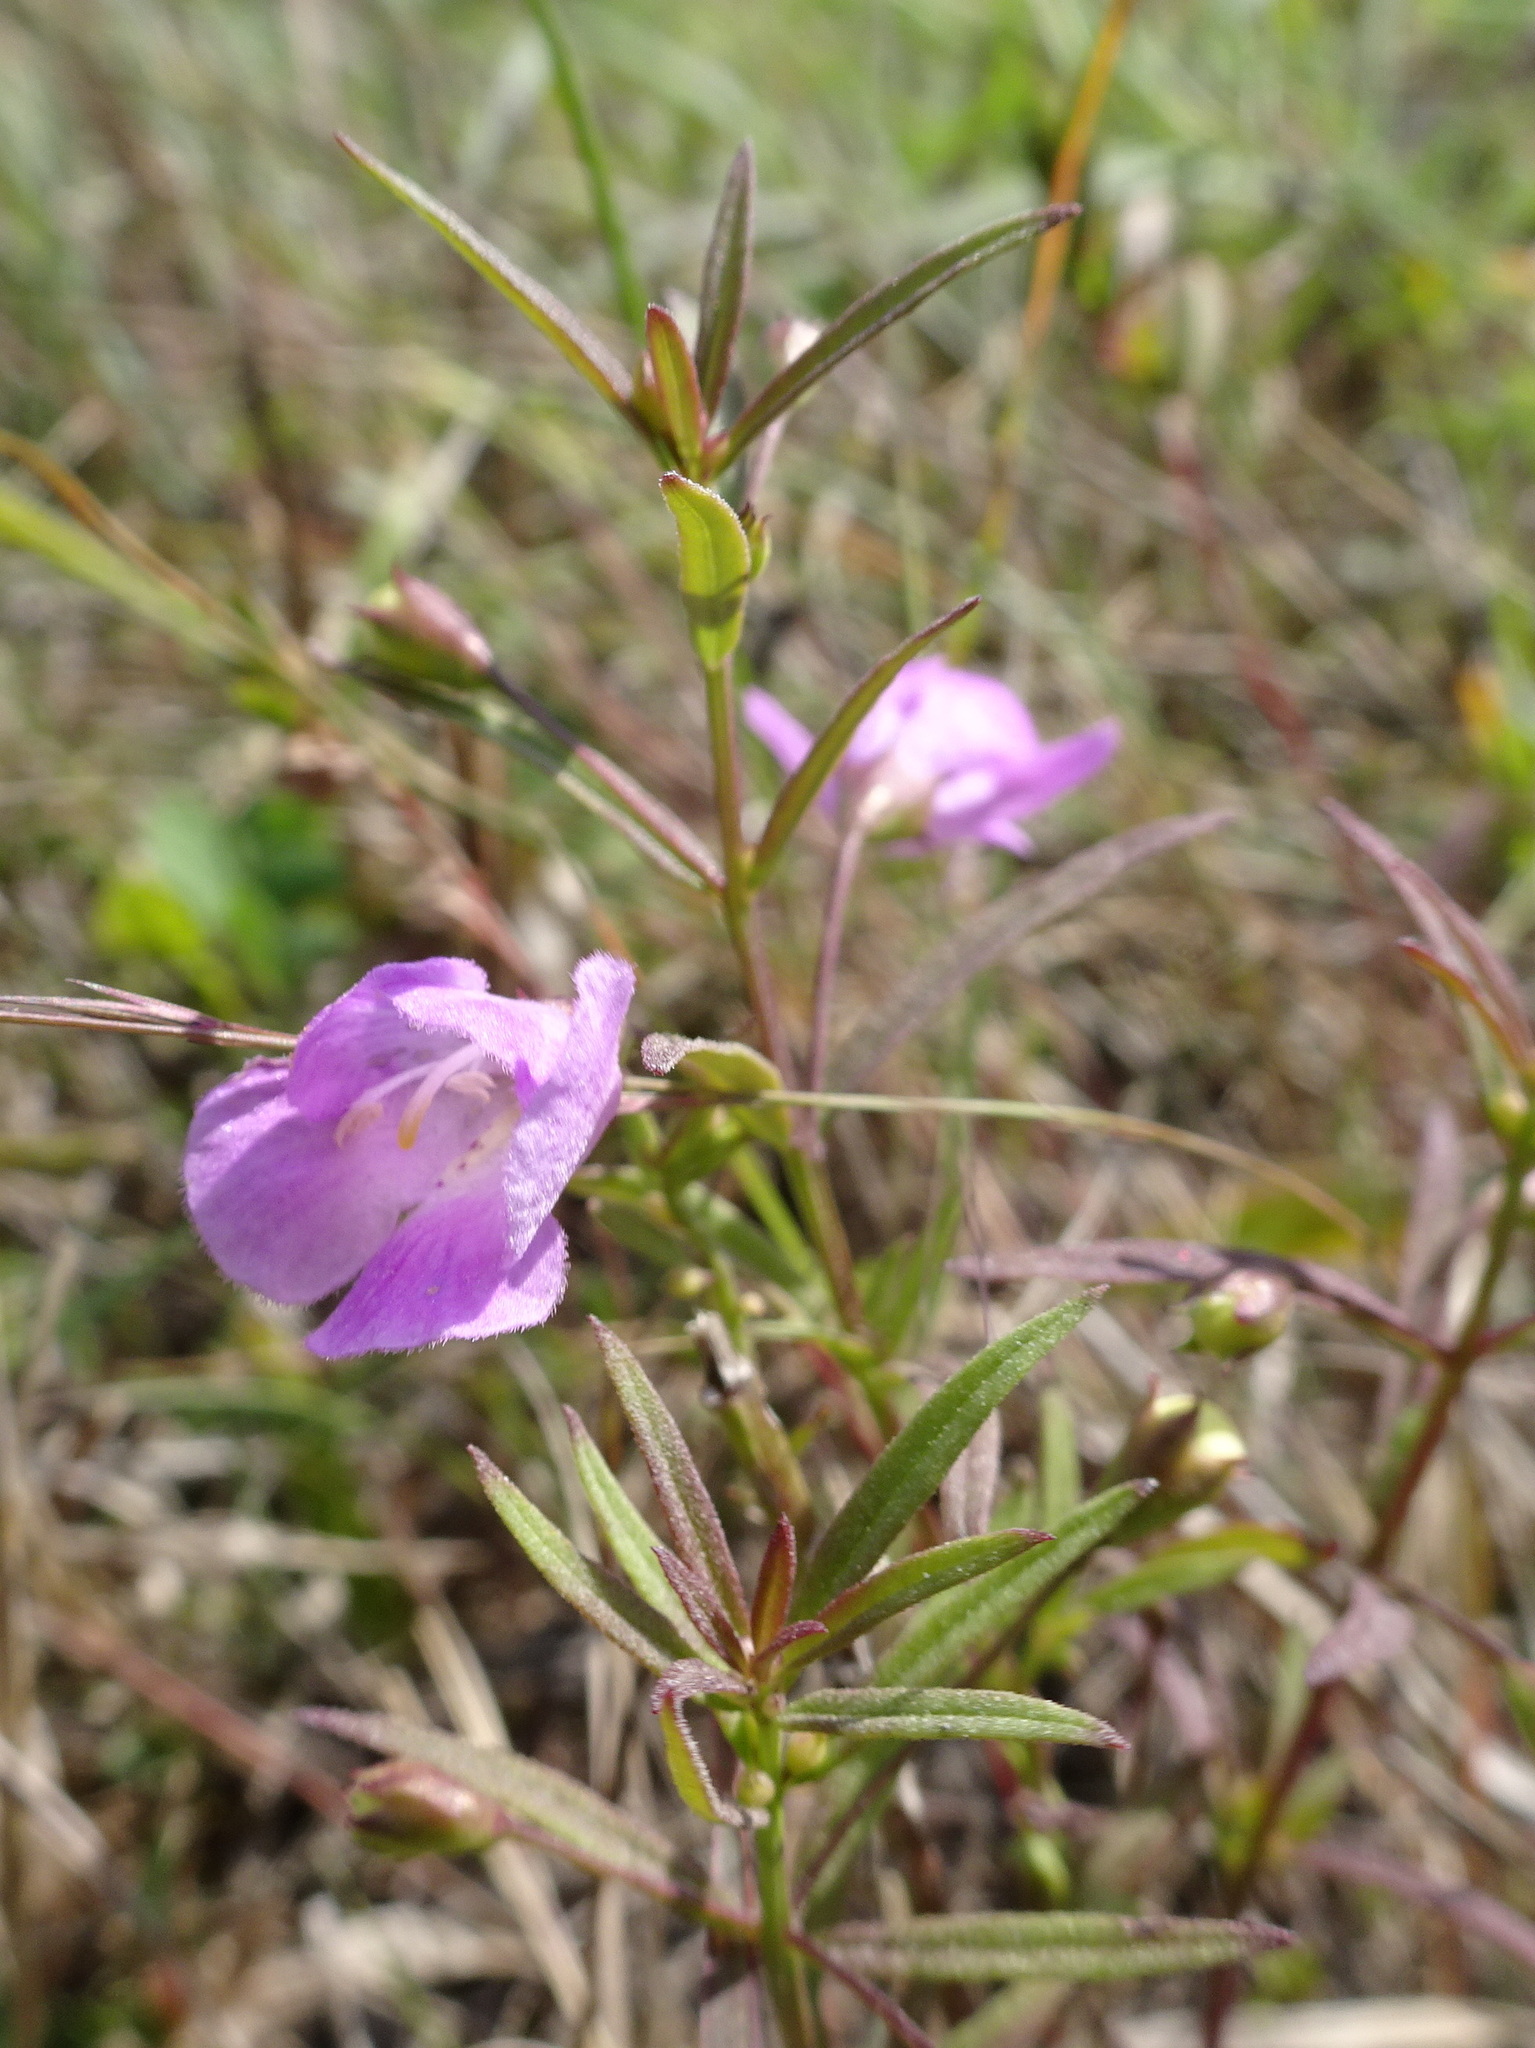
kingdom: Plantae
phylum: Tracheophyta
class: Magnoliopsida
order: Lamiales
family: Orobanchaceae
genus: Agalinis
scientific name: Agalinis tenuifolia
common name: Slender agalinis
